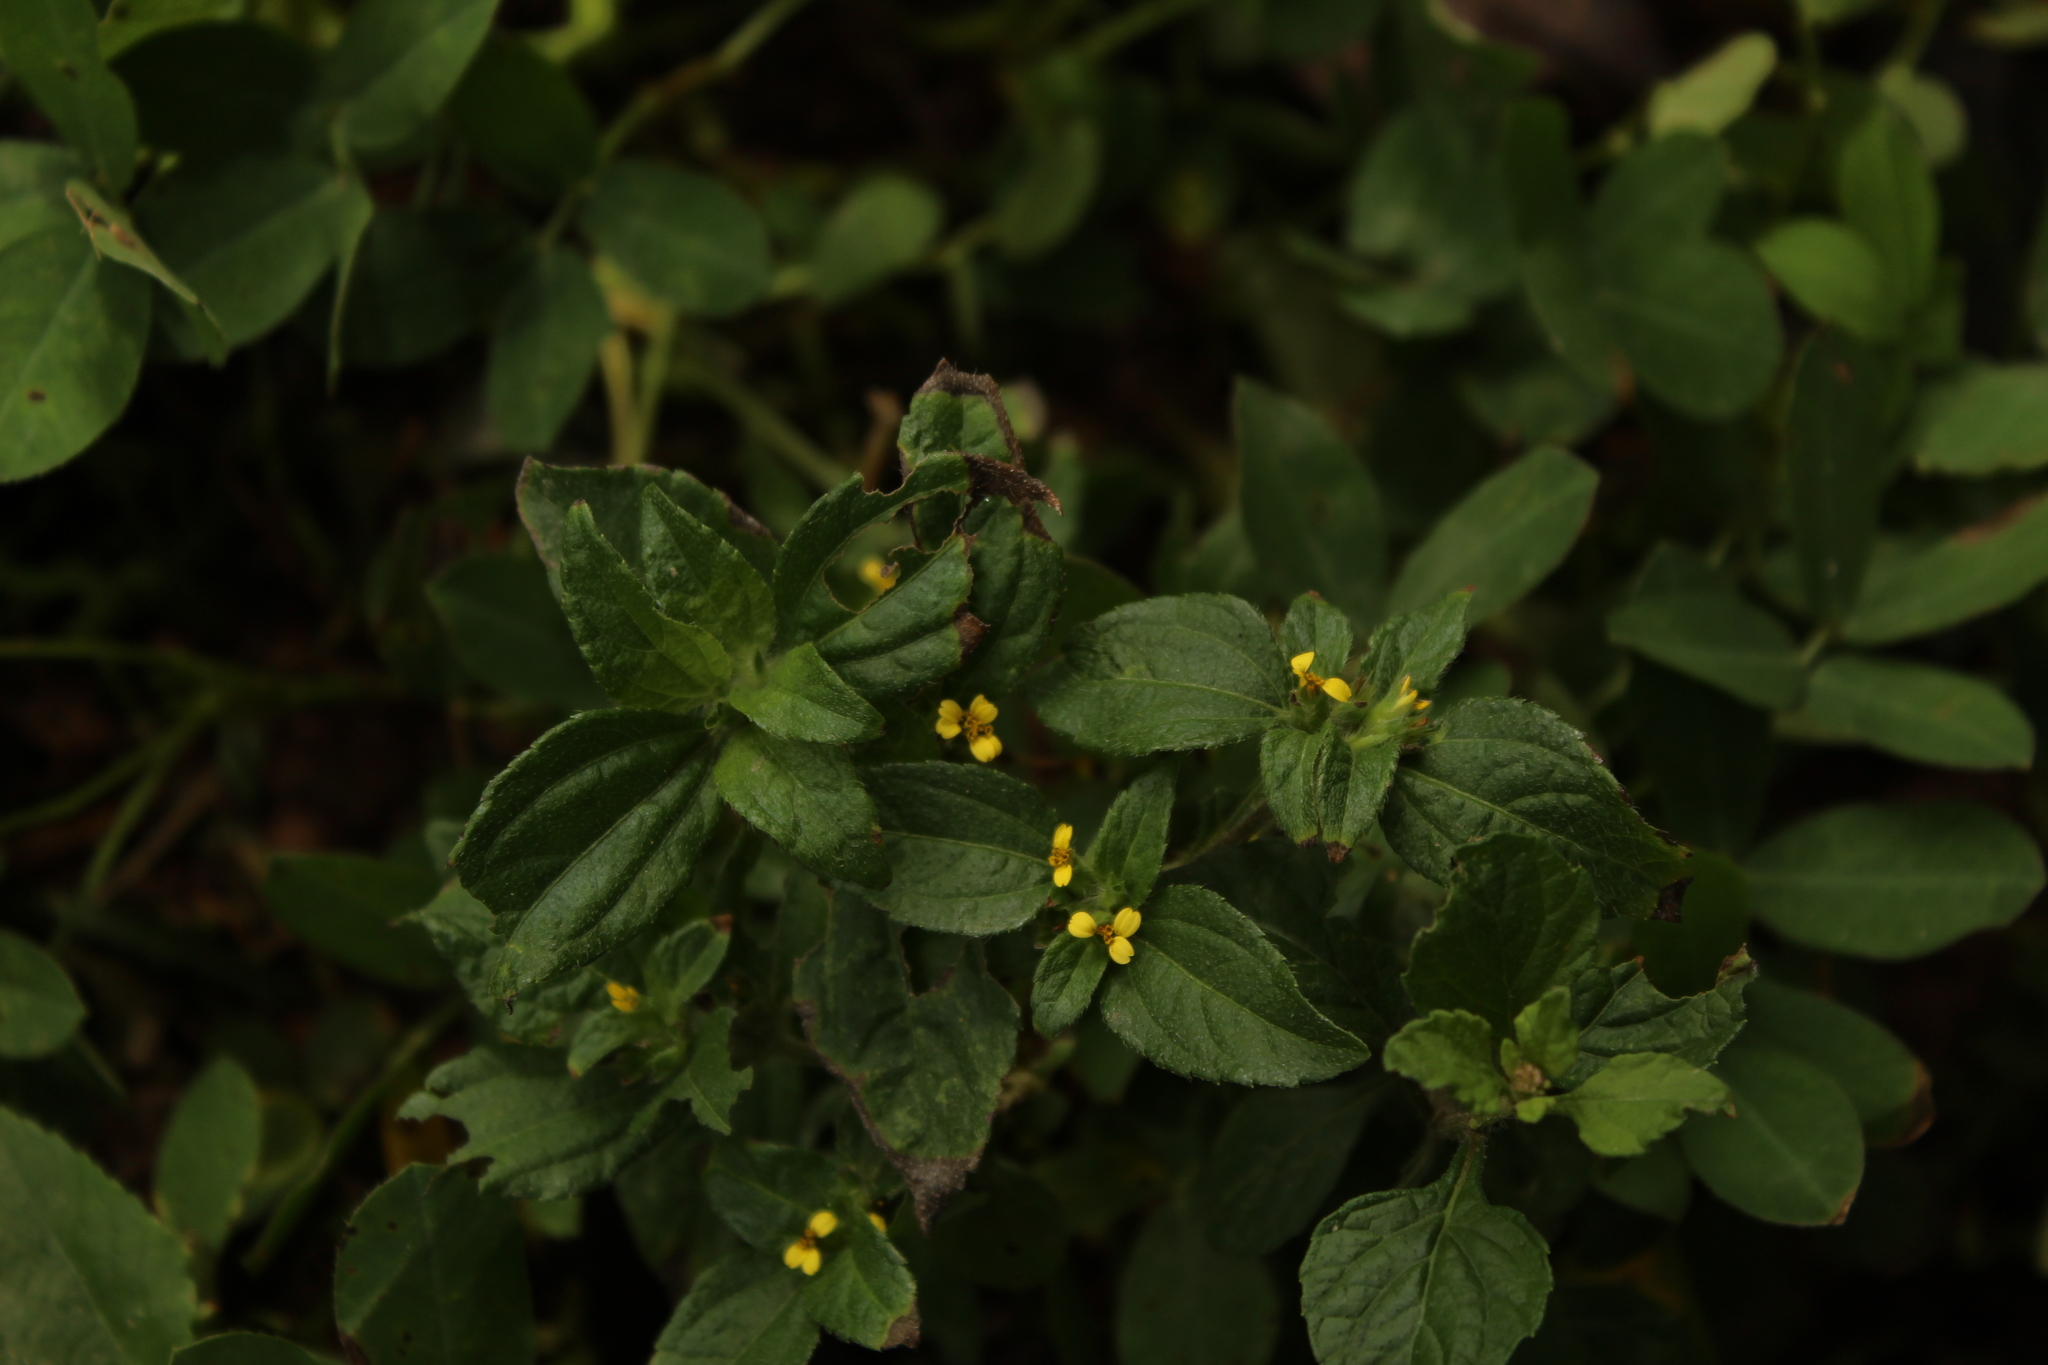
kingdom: Plantae
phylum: Tracheophyta
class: Magnoliopsida
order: Asterales
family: Asteraceae
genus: Synedrella
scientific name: Synedrella nodiflora
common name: Nodeweed
